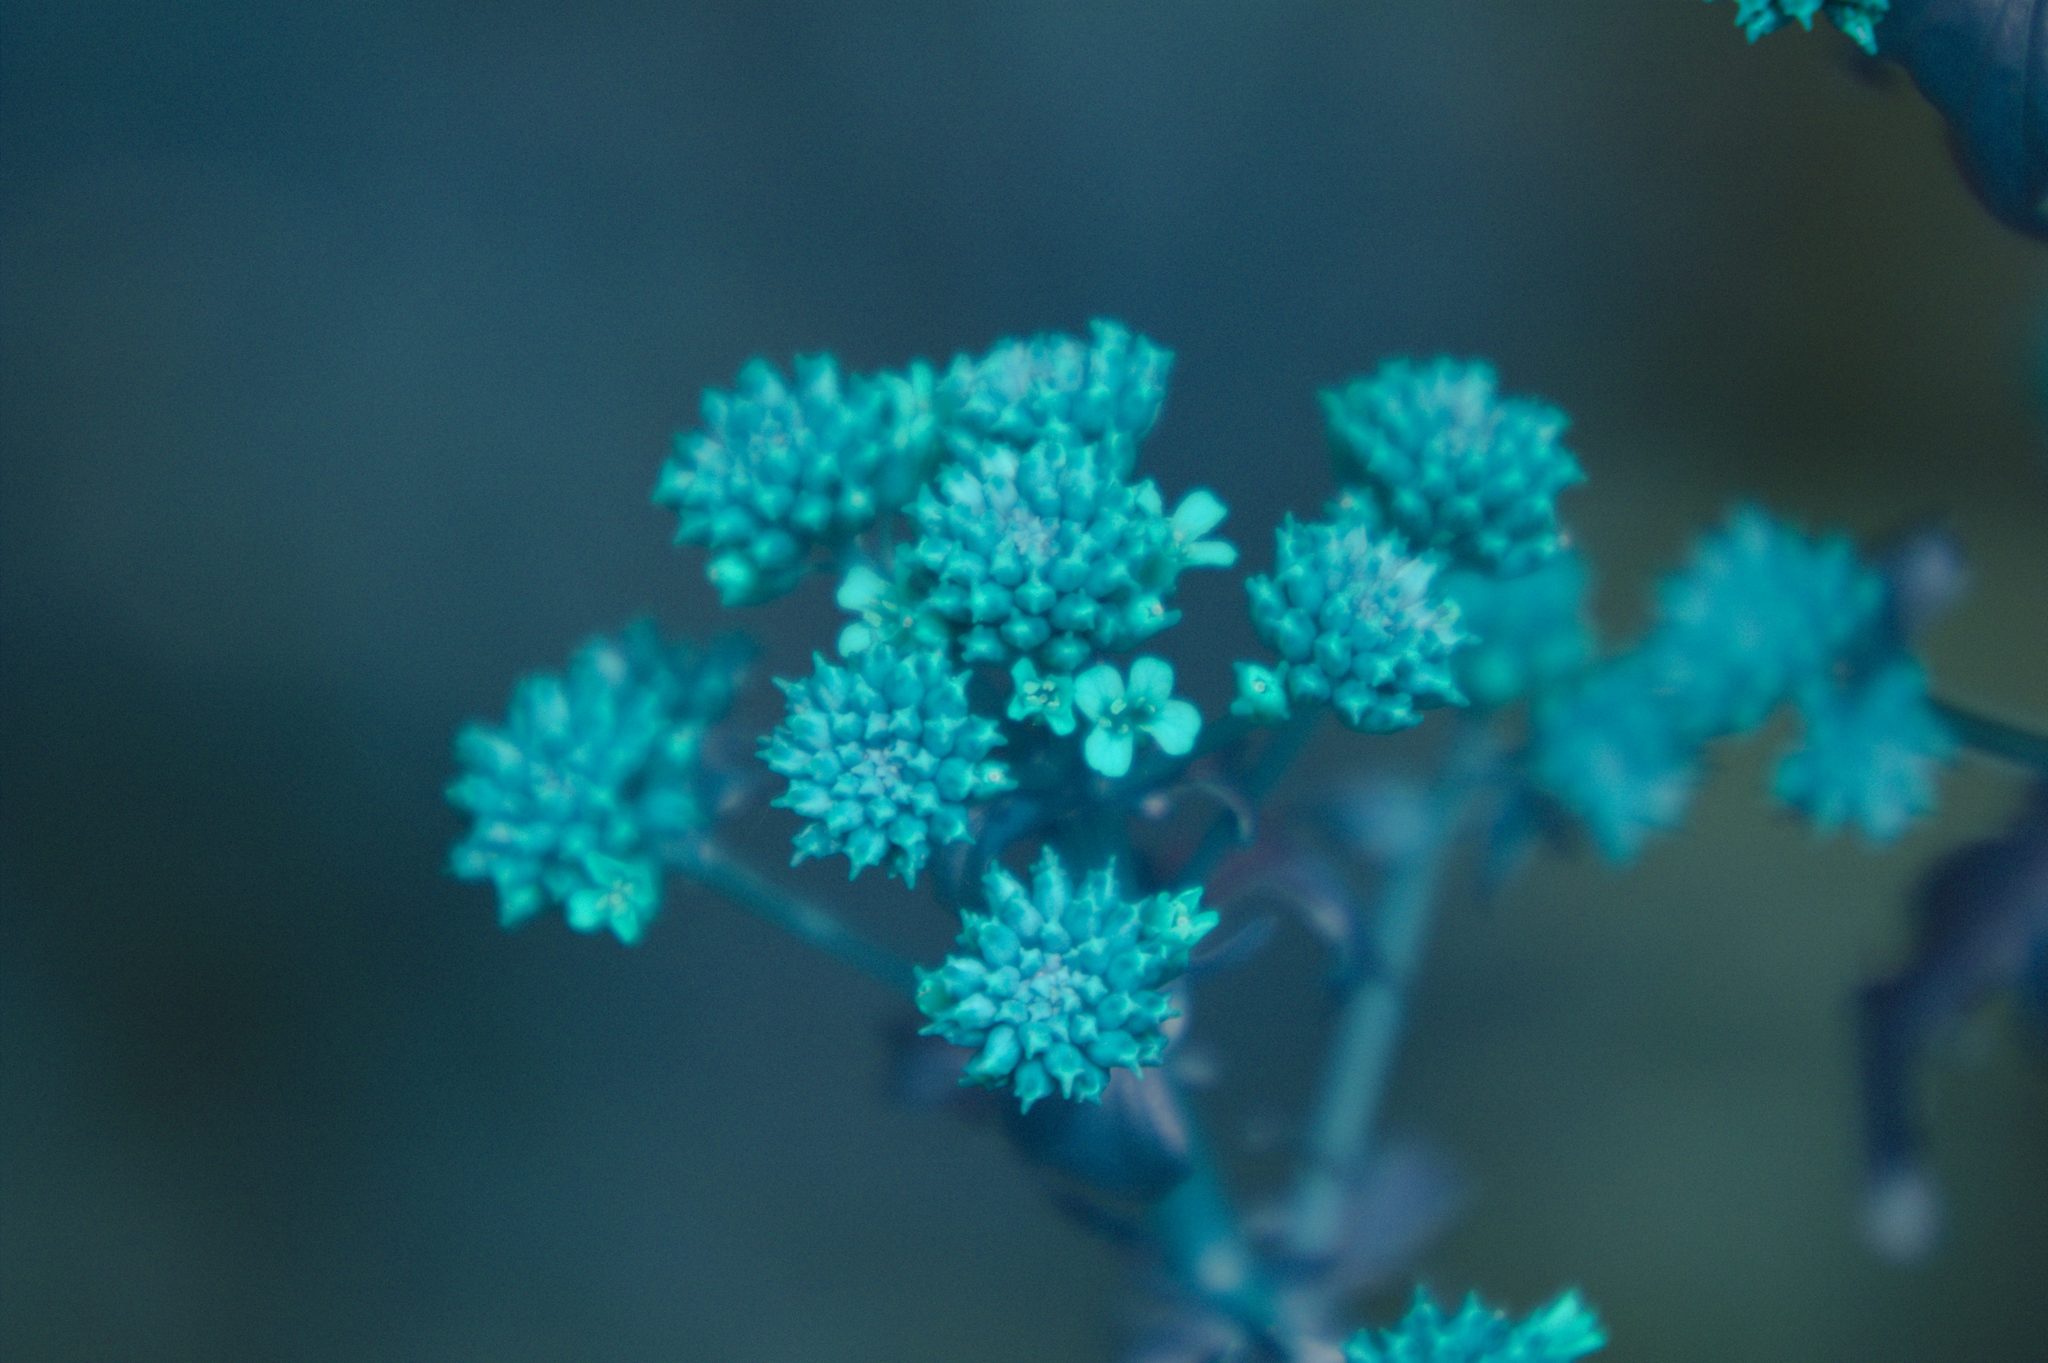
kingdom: Plantae
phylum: Tracheophyta
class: Magnoliopsida
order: Brassicales
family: Brassicaceae
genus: Barbarea
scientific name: Barbarea vulgaris
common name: Cressy-greens
